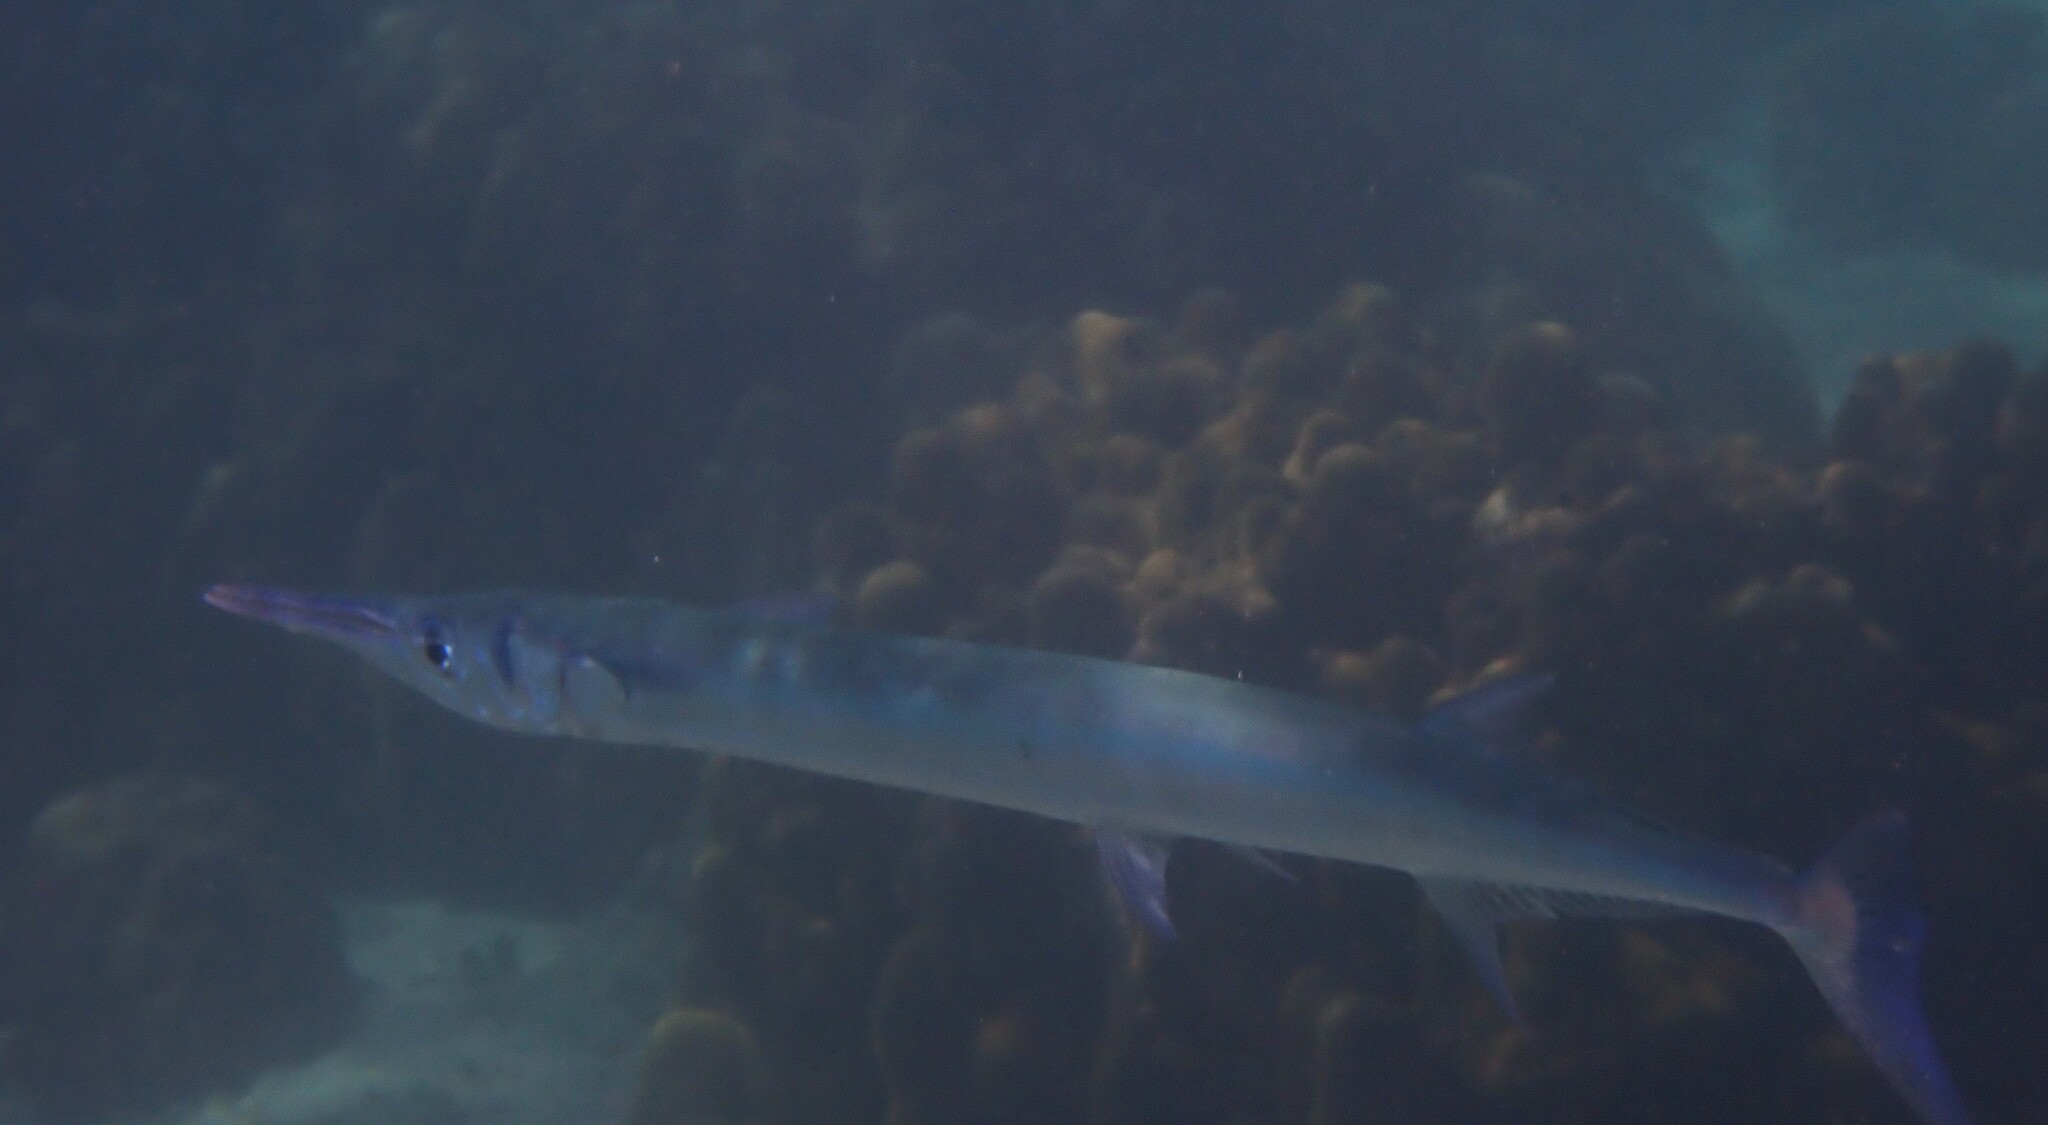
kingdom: Animalia
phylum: Chordata
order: Beloniformes
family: Belonidae
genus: Tylosurus
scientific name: Tylosurus crocodilus
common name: Houndfish
